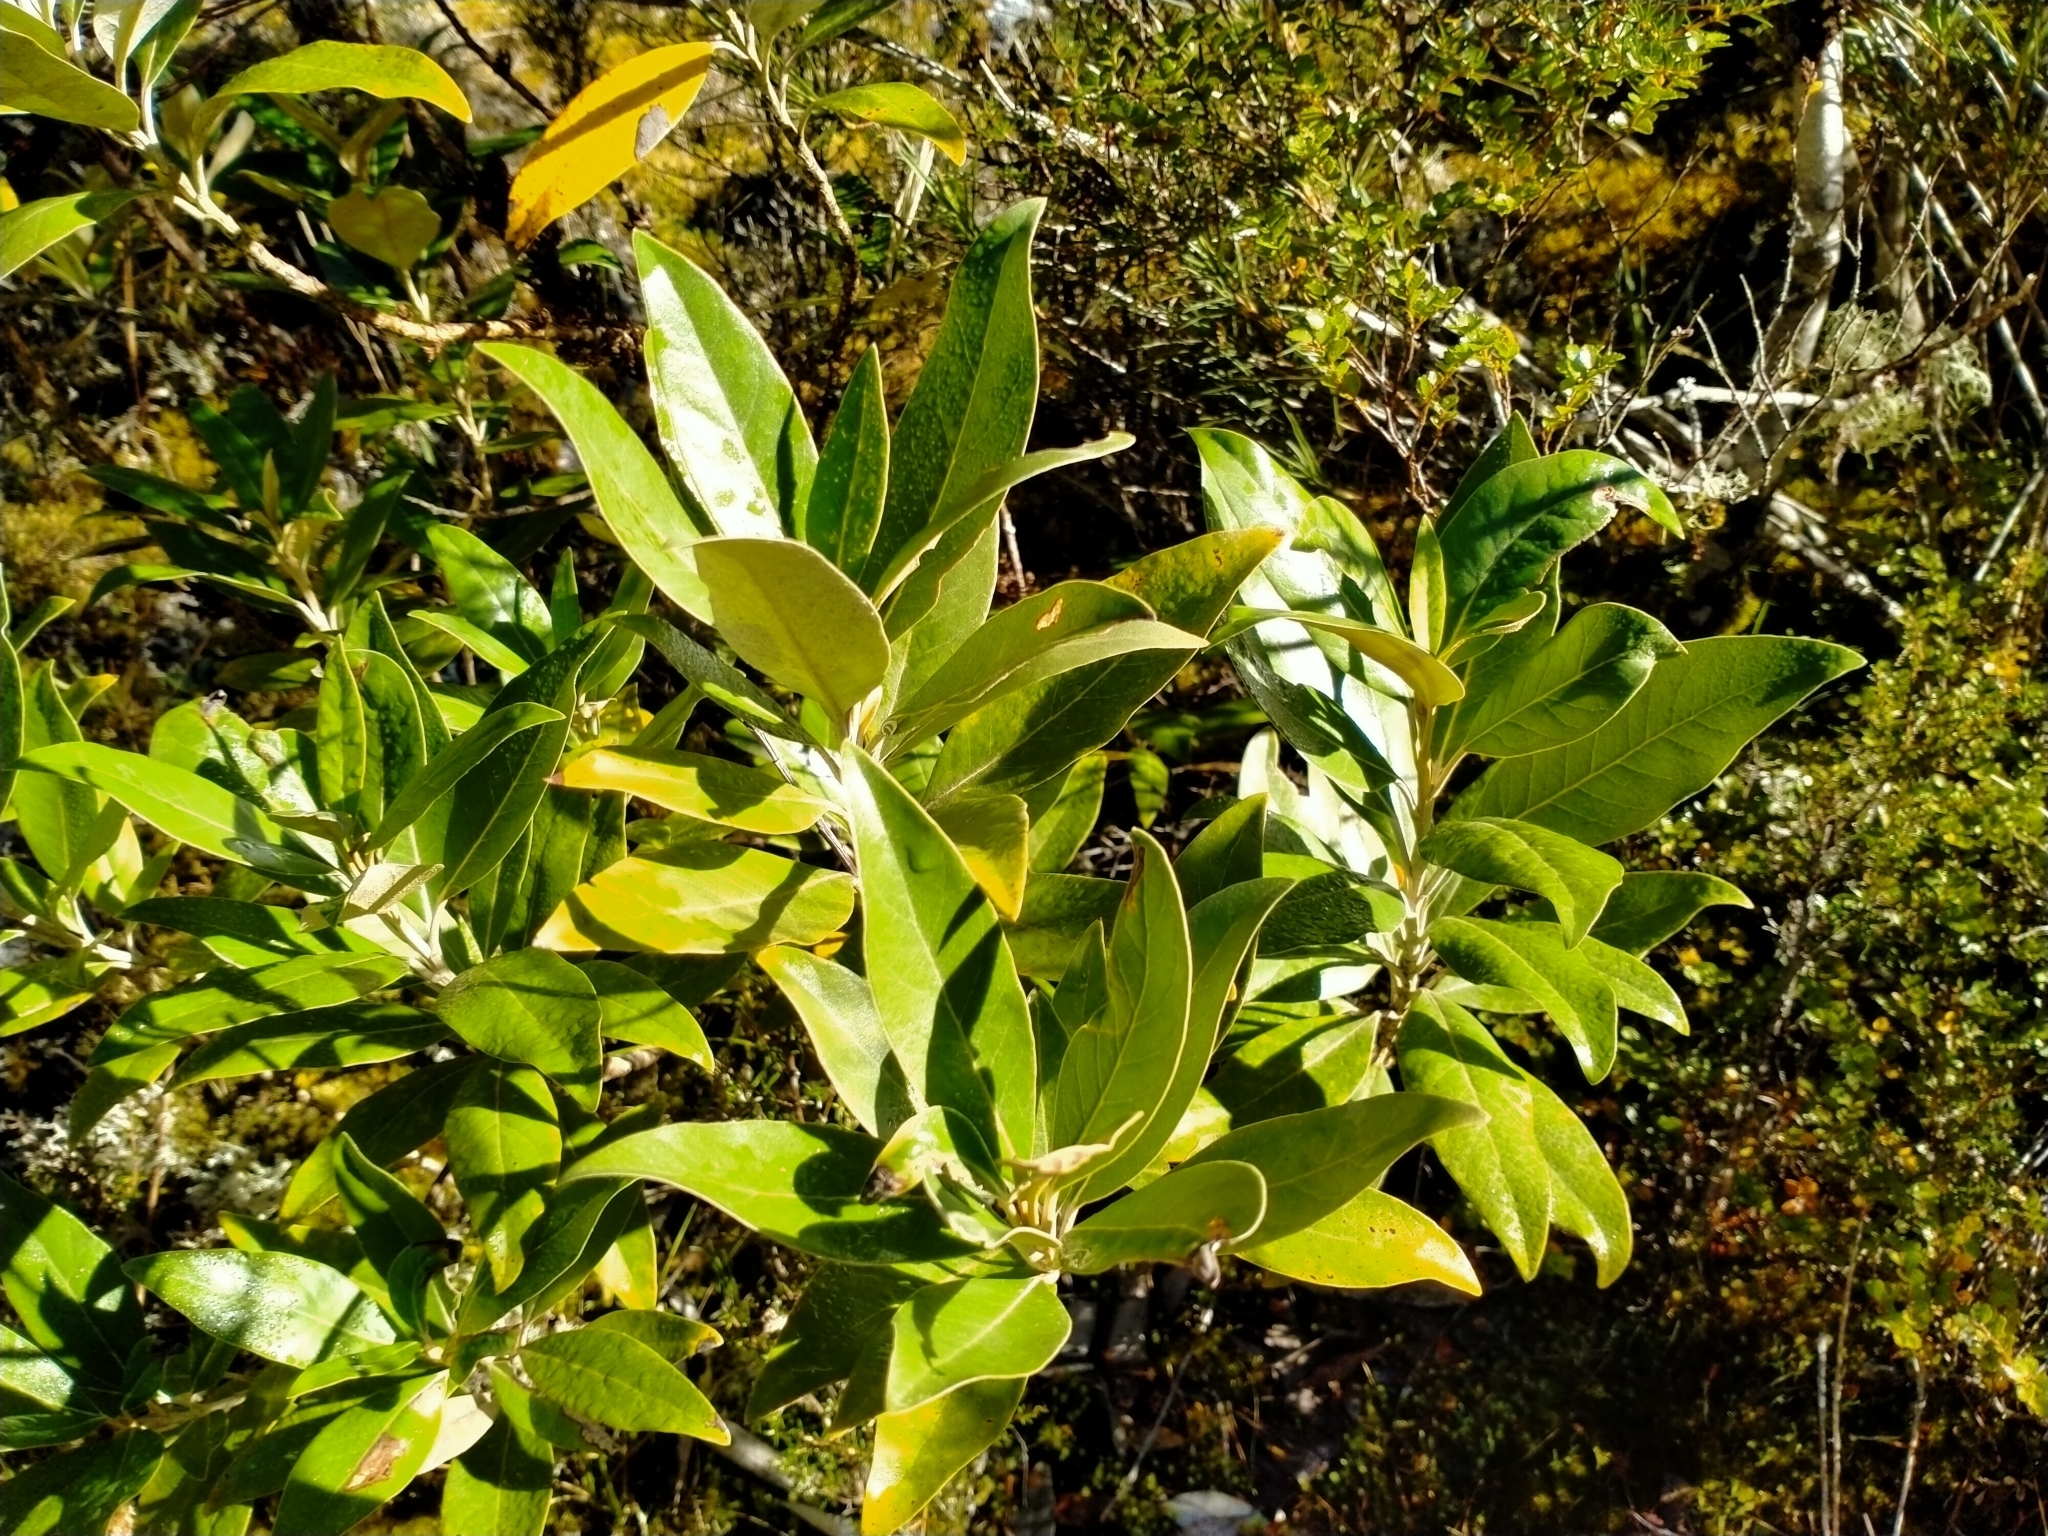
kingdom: Plantae
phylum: Tracheophyta
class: Magnoliopsida
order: Asterales
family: Asteraceae
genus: Olearia
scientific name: Olearia avicenniifolia
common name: Mangrove-leaf daisybush
